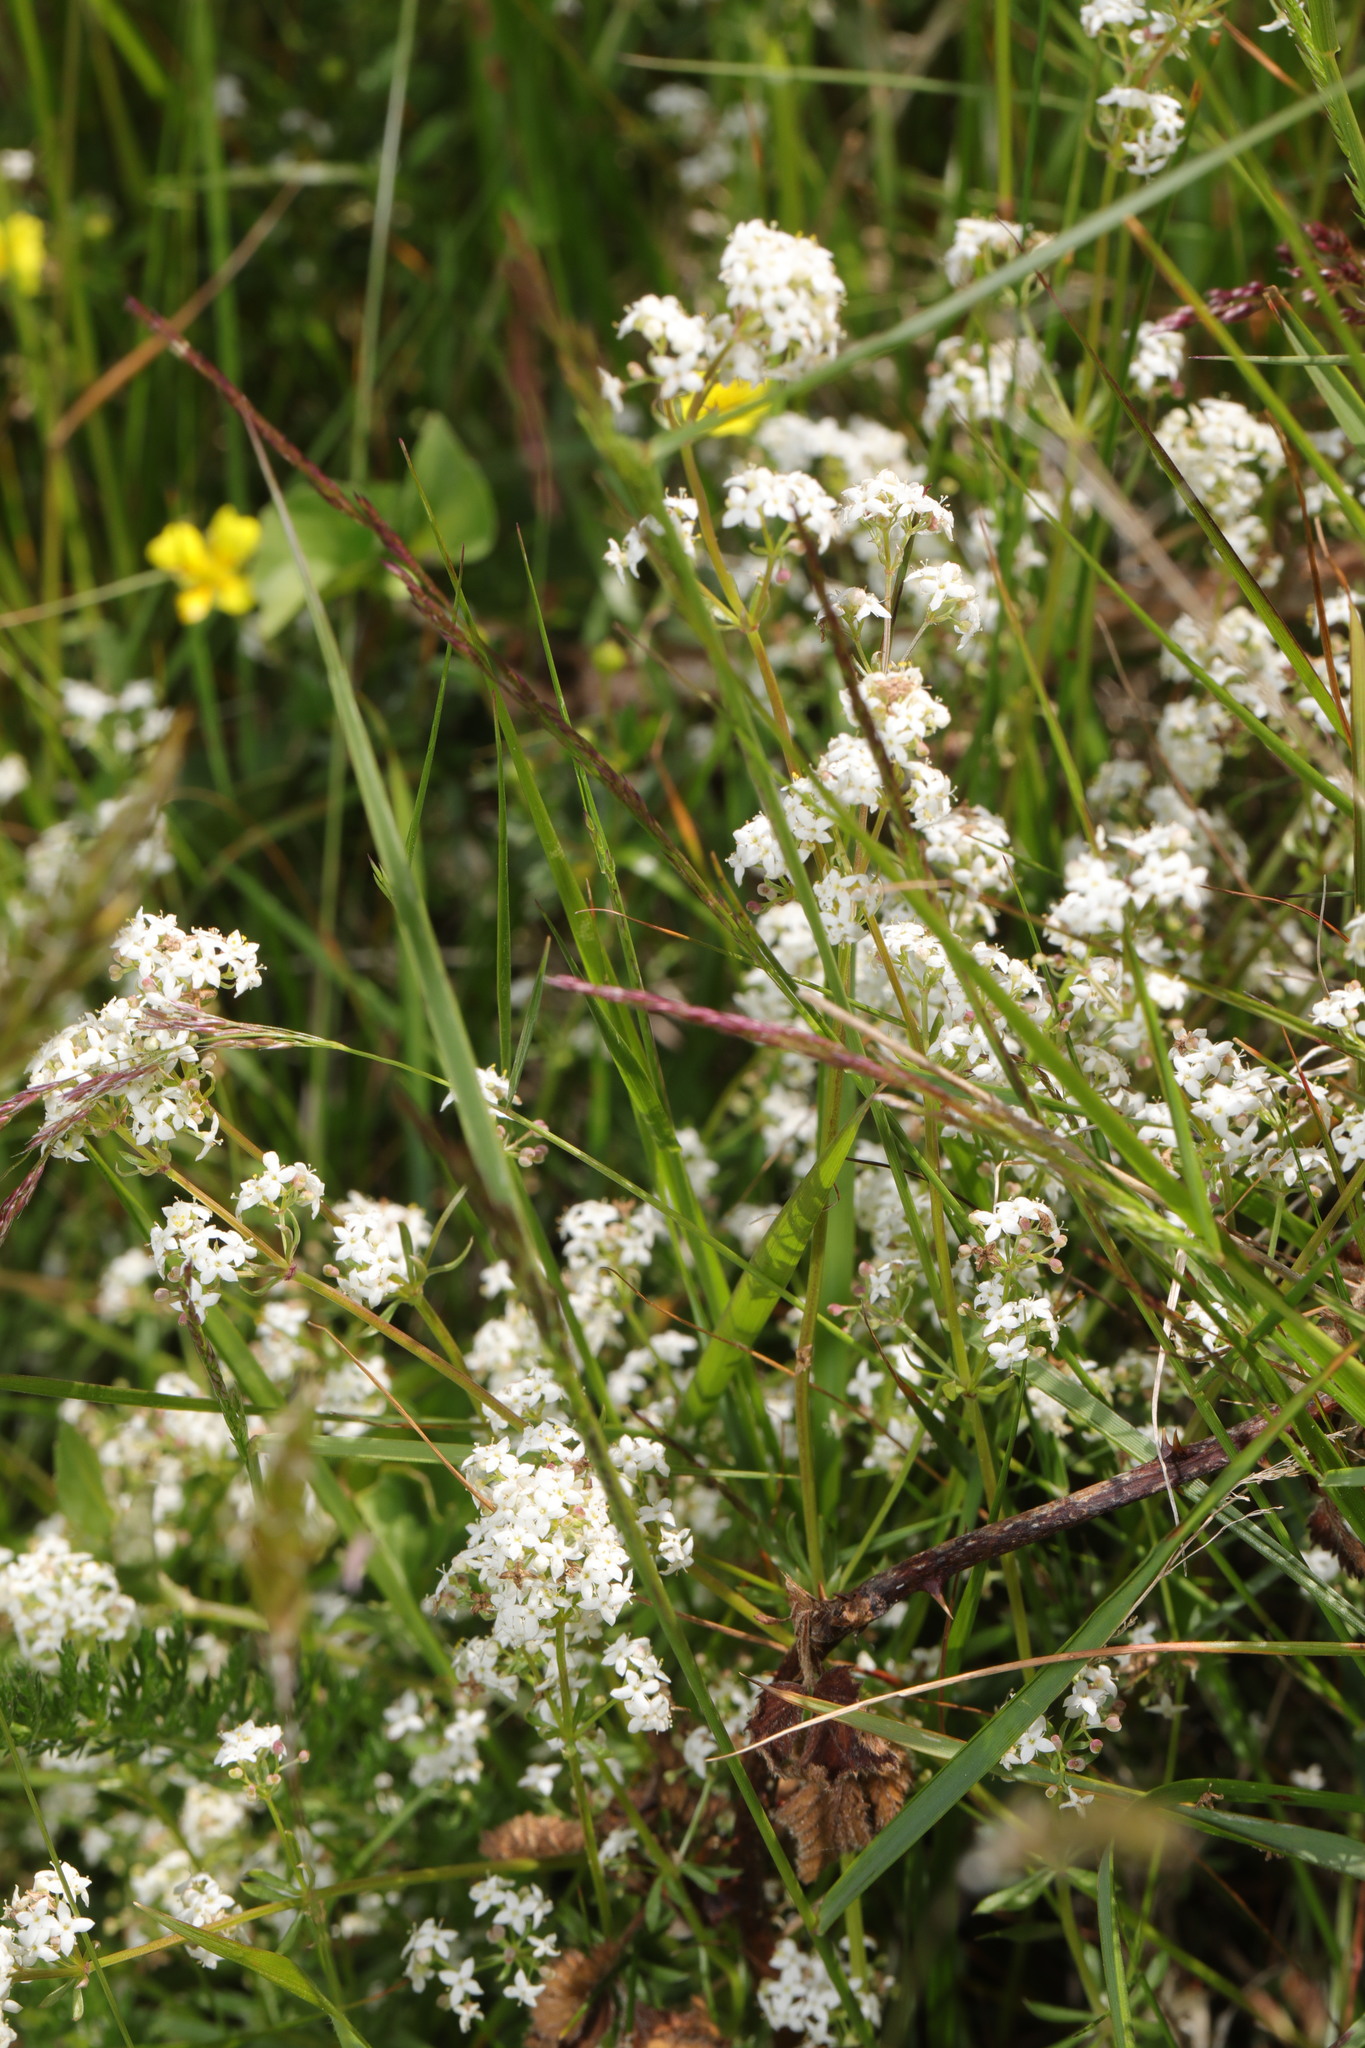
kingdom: Plantae
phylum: Tracheophyta
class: Magnoliopsida
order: Gentianales
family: Rubiaceae
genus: Galium
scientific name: Galium saxatile
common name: Heath bedstraw
